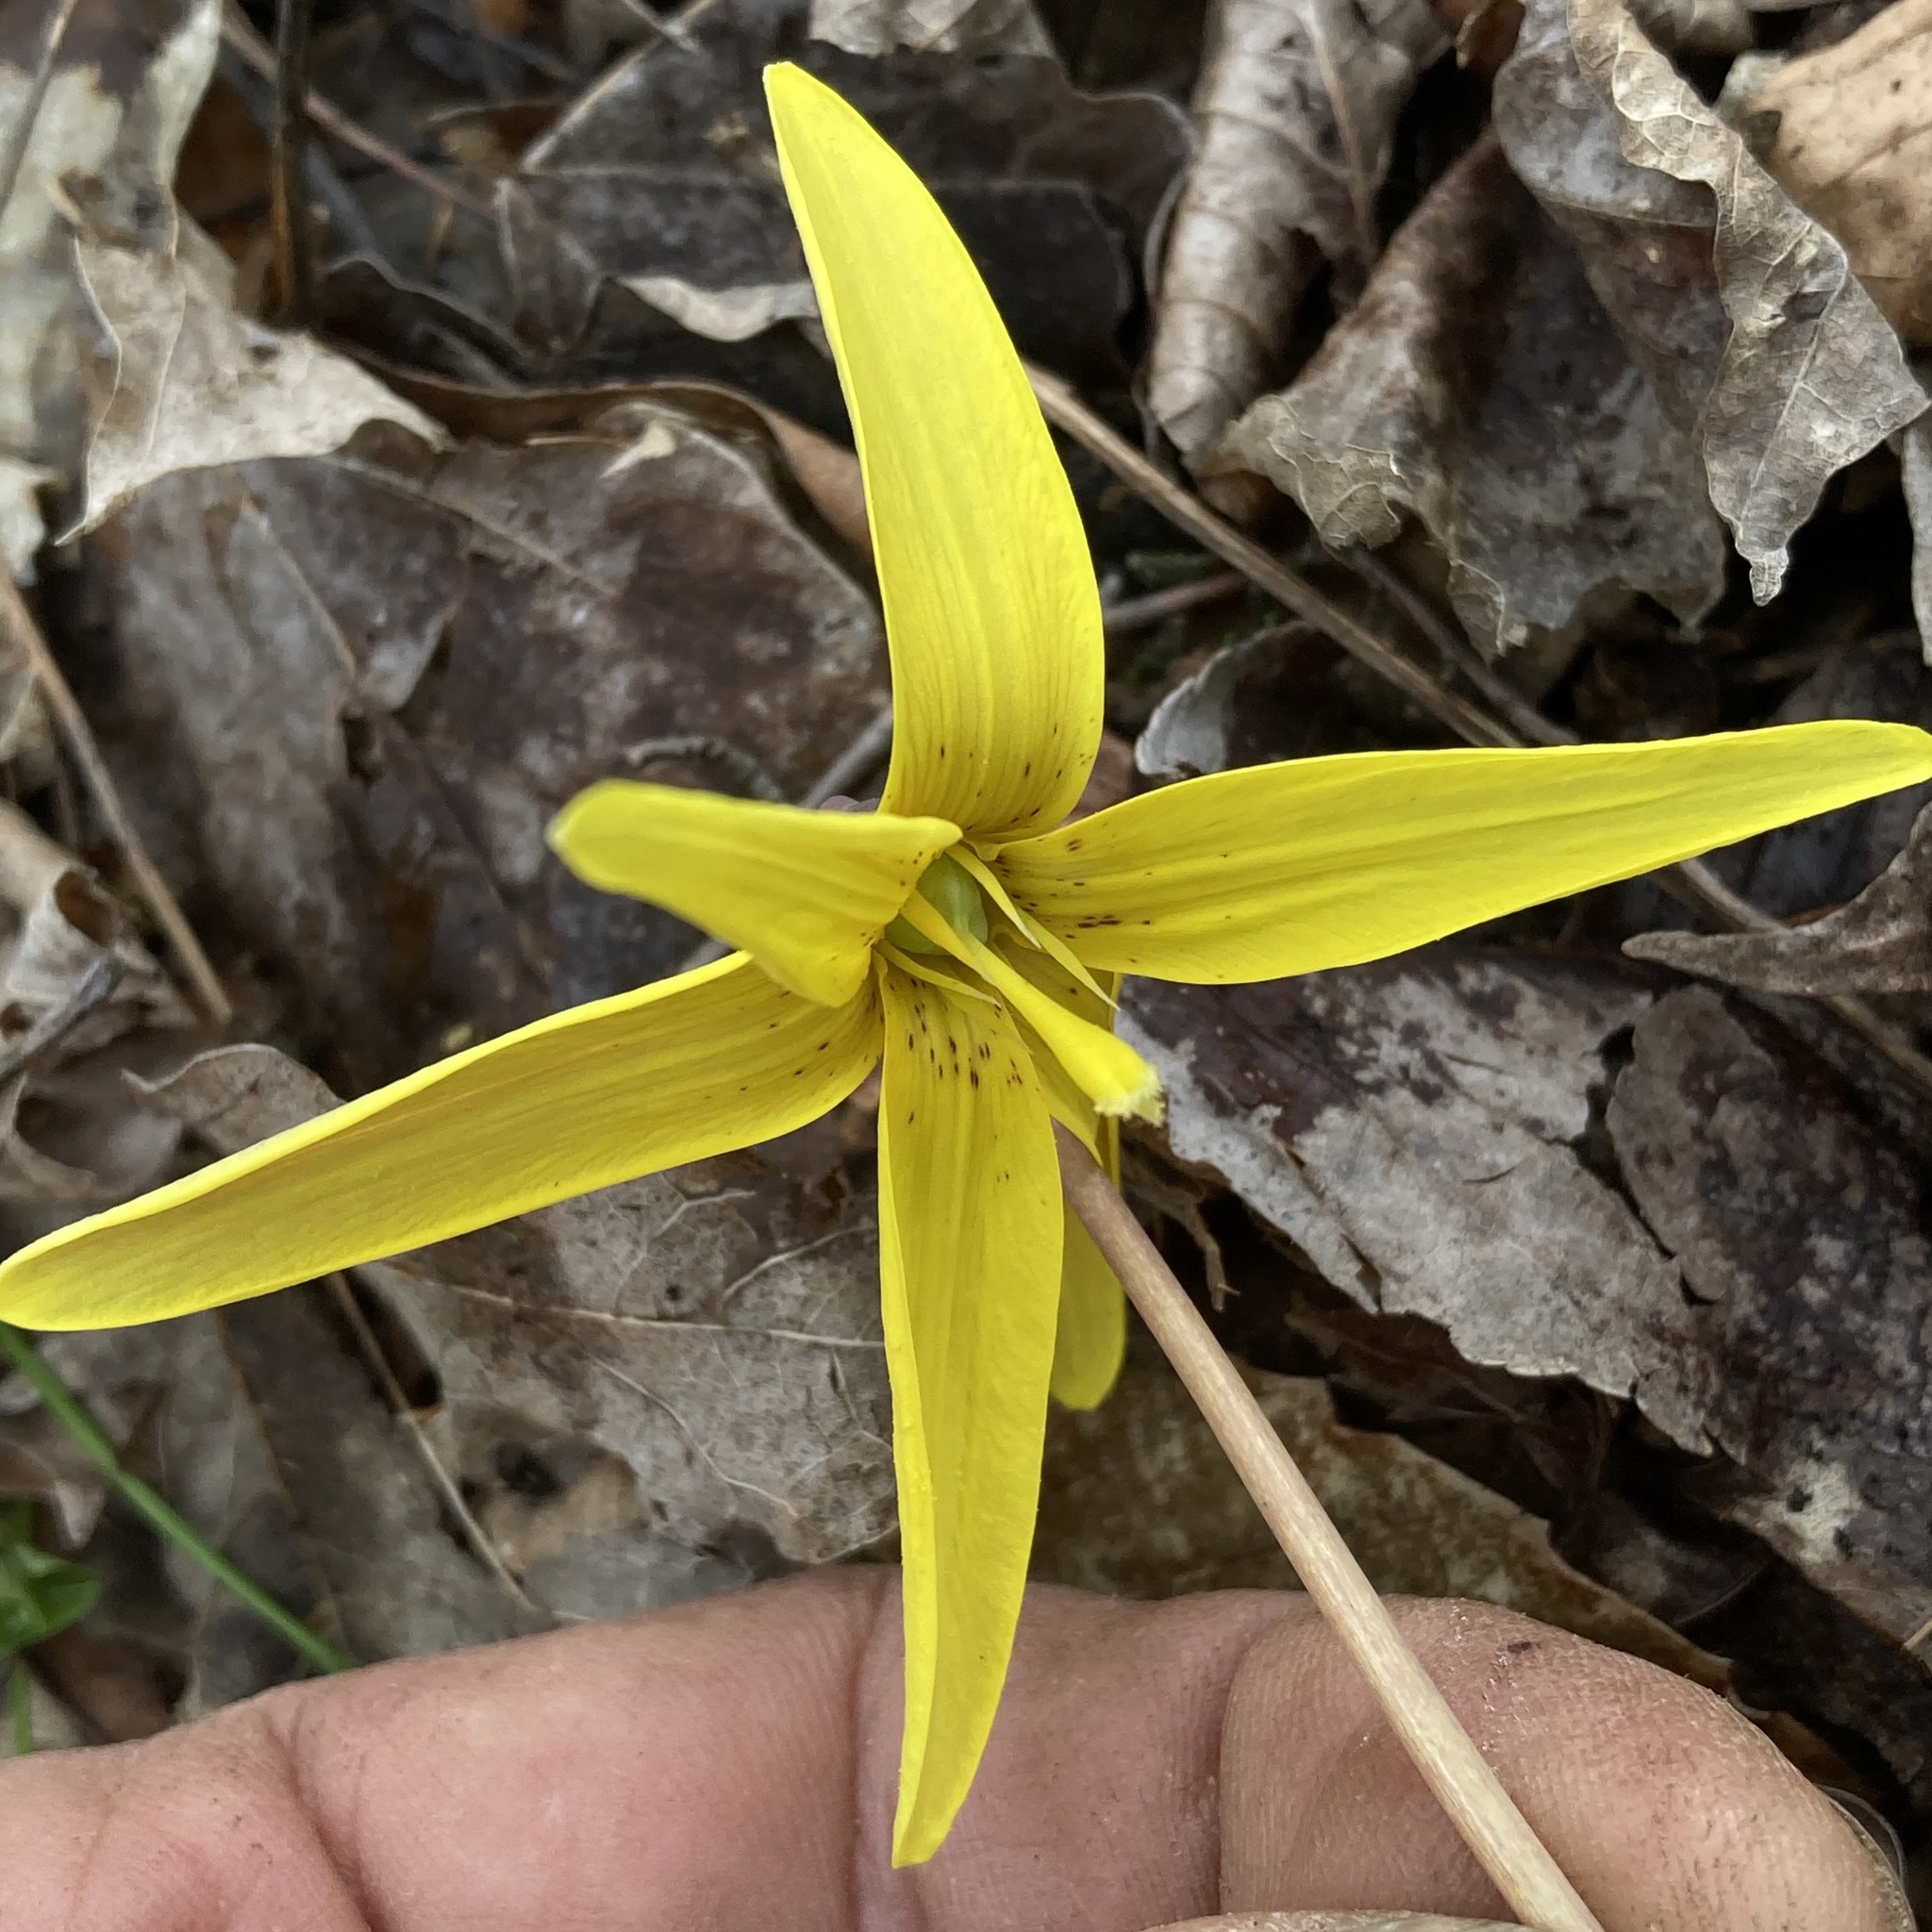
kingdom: Plantae
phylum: Tracheophyta
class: Liliopsida
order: Liliales
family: Liliaceae
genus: Erythronium
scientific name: Erythronium americanum
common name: Yellow adder's-tongue
